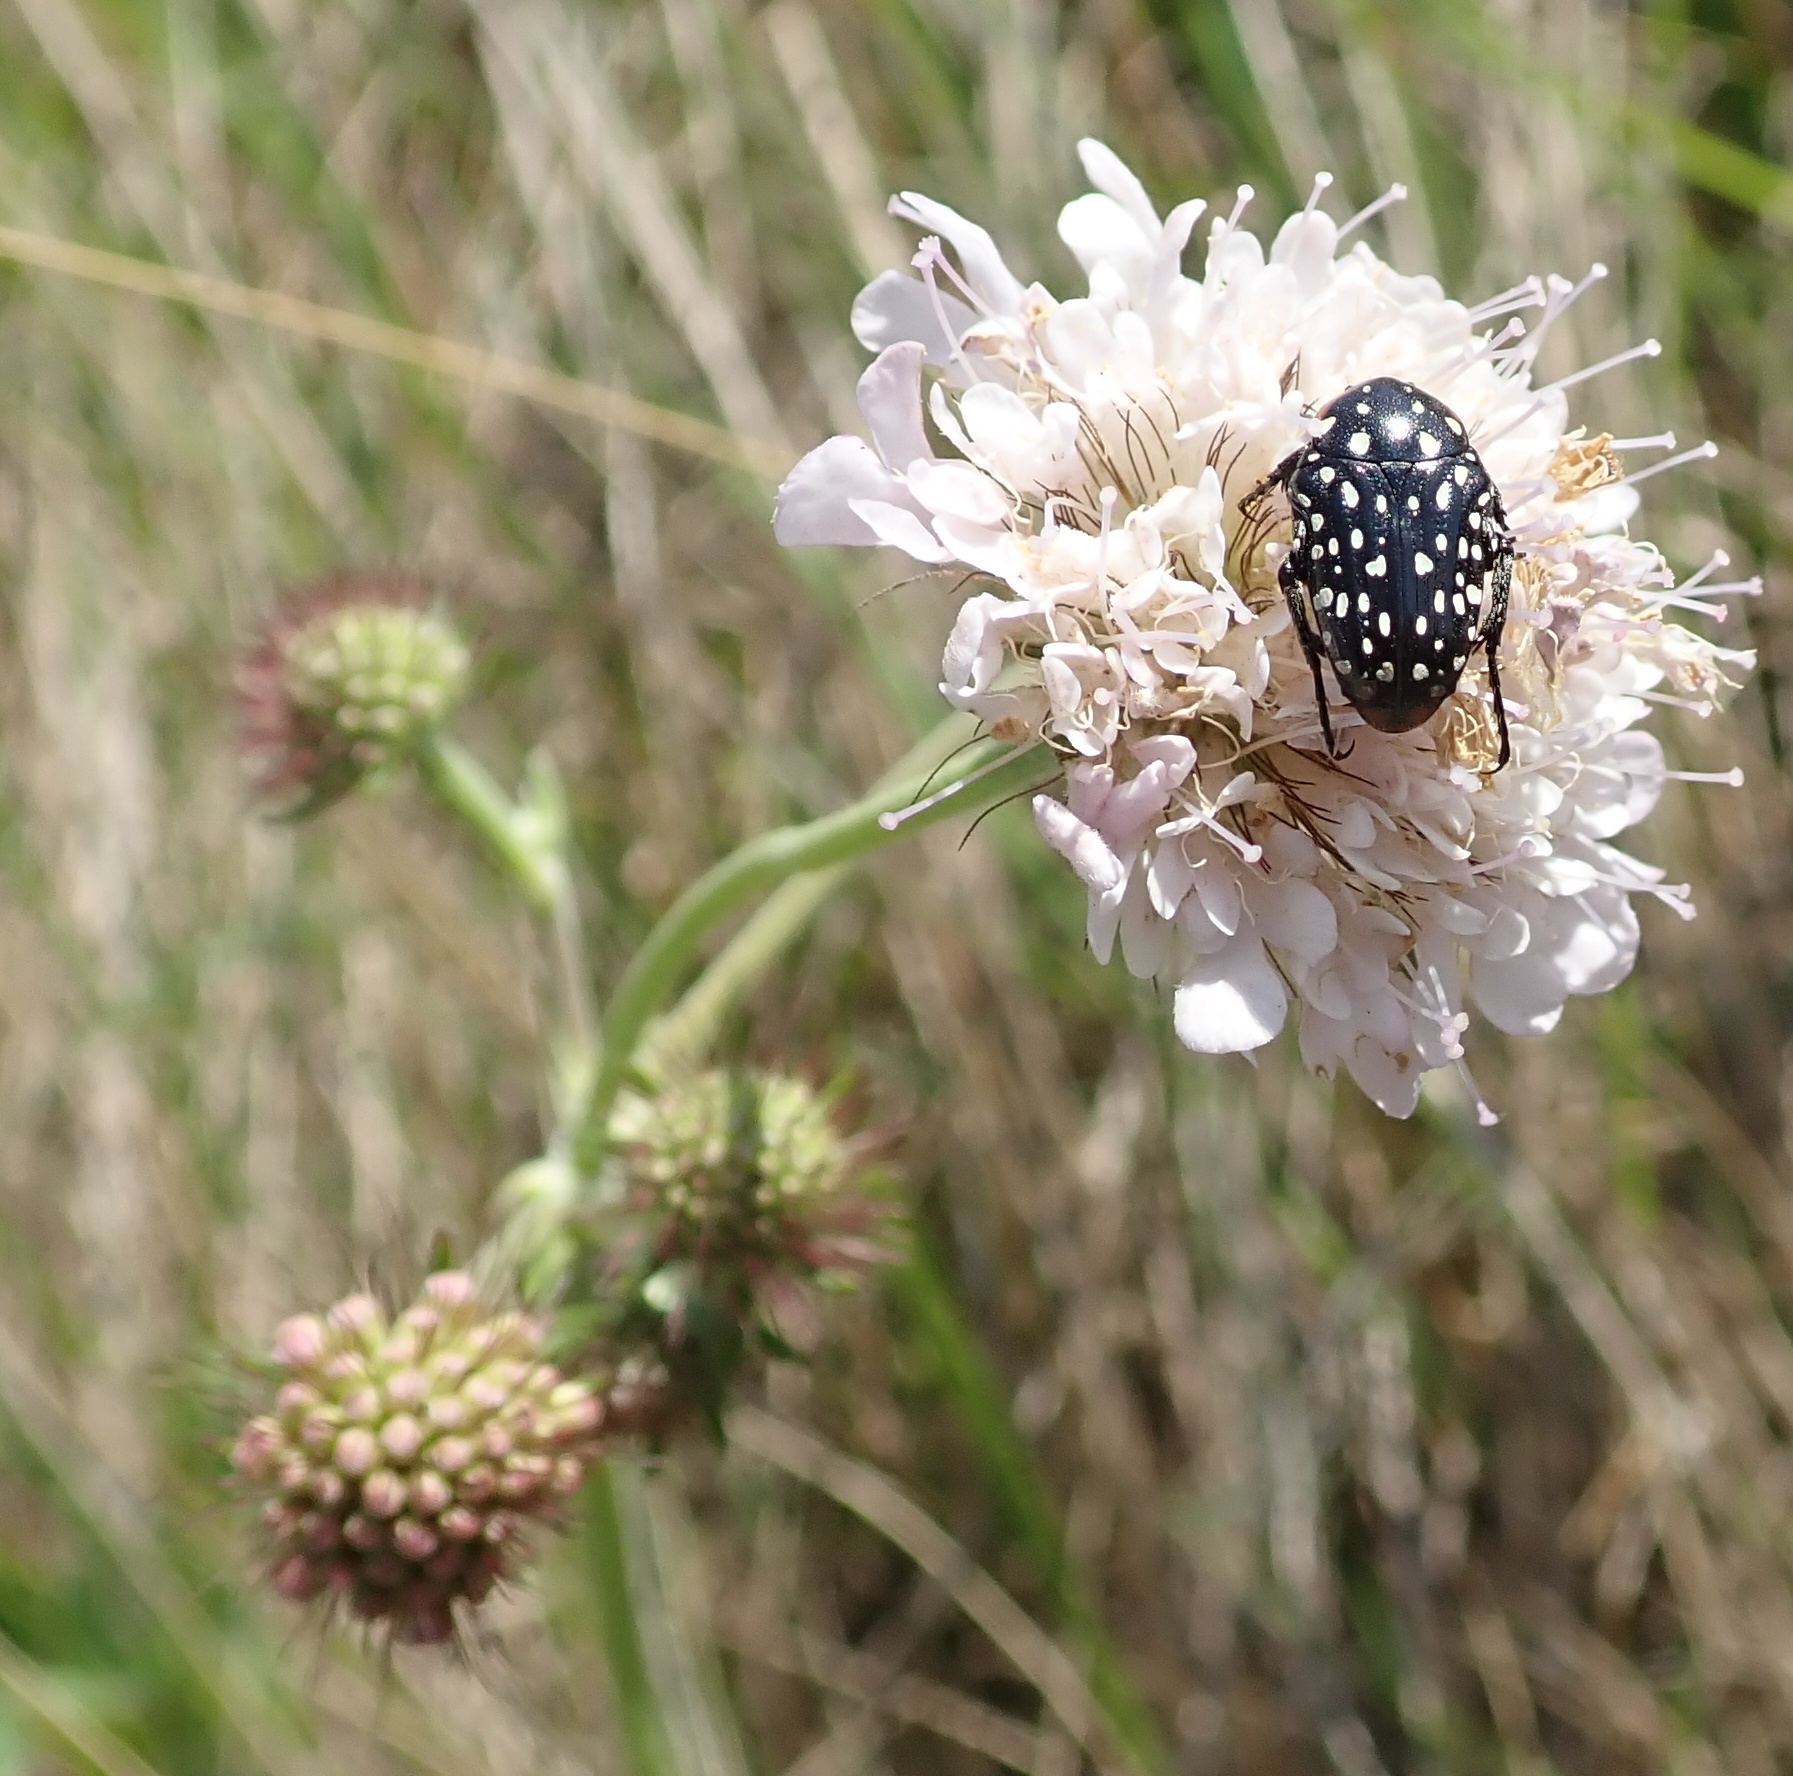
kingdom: Plantae
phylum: Tracheophyta
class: Magnoliopsida
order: Dipsacales
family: Caprifoliaceae
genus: Scabiosa
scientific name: Scabiosa columbaria
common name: Small scabious
